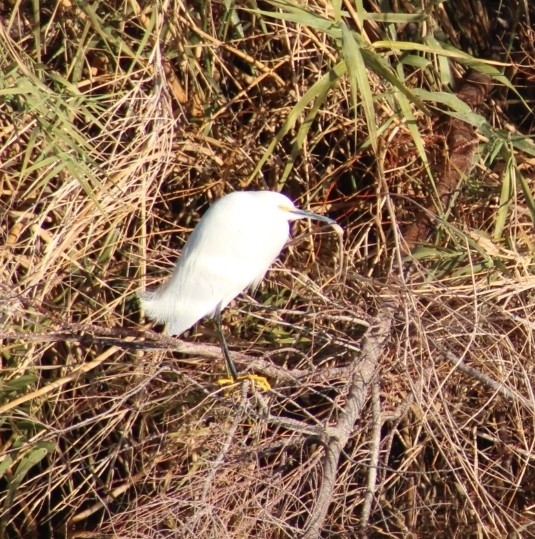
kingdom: Animalia
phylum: Chordata
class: Aves
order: Pelecaniformes
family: Ardeidae
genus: Egretta
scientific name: Egretta thula
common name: Snowy egret
